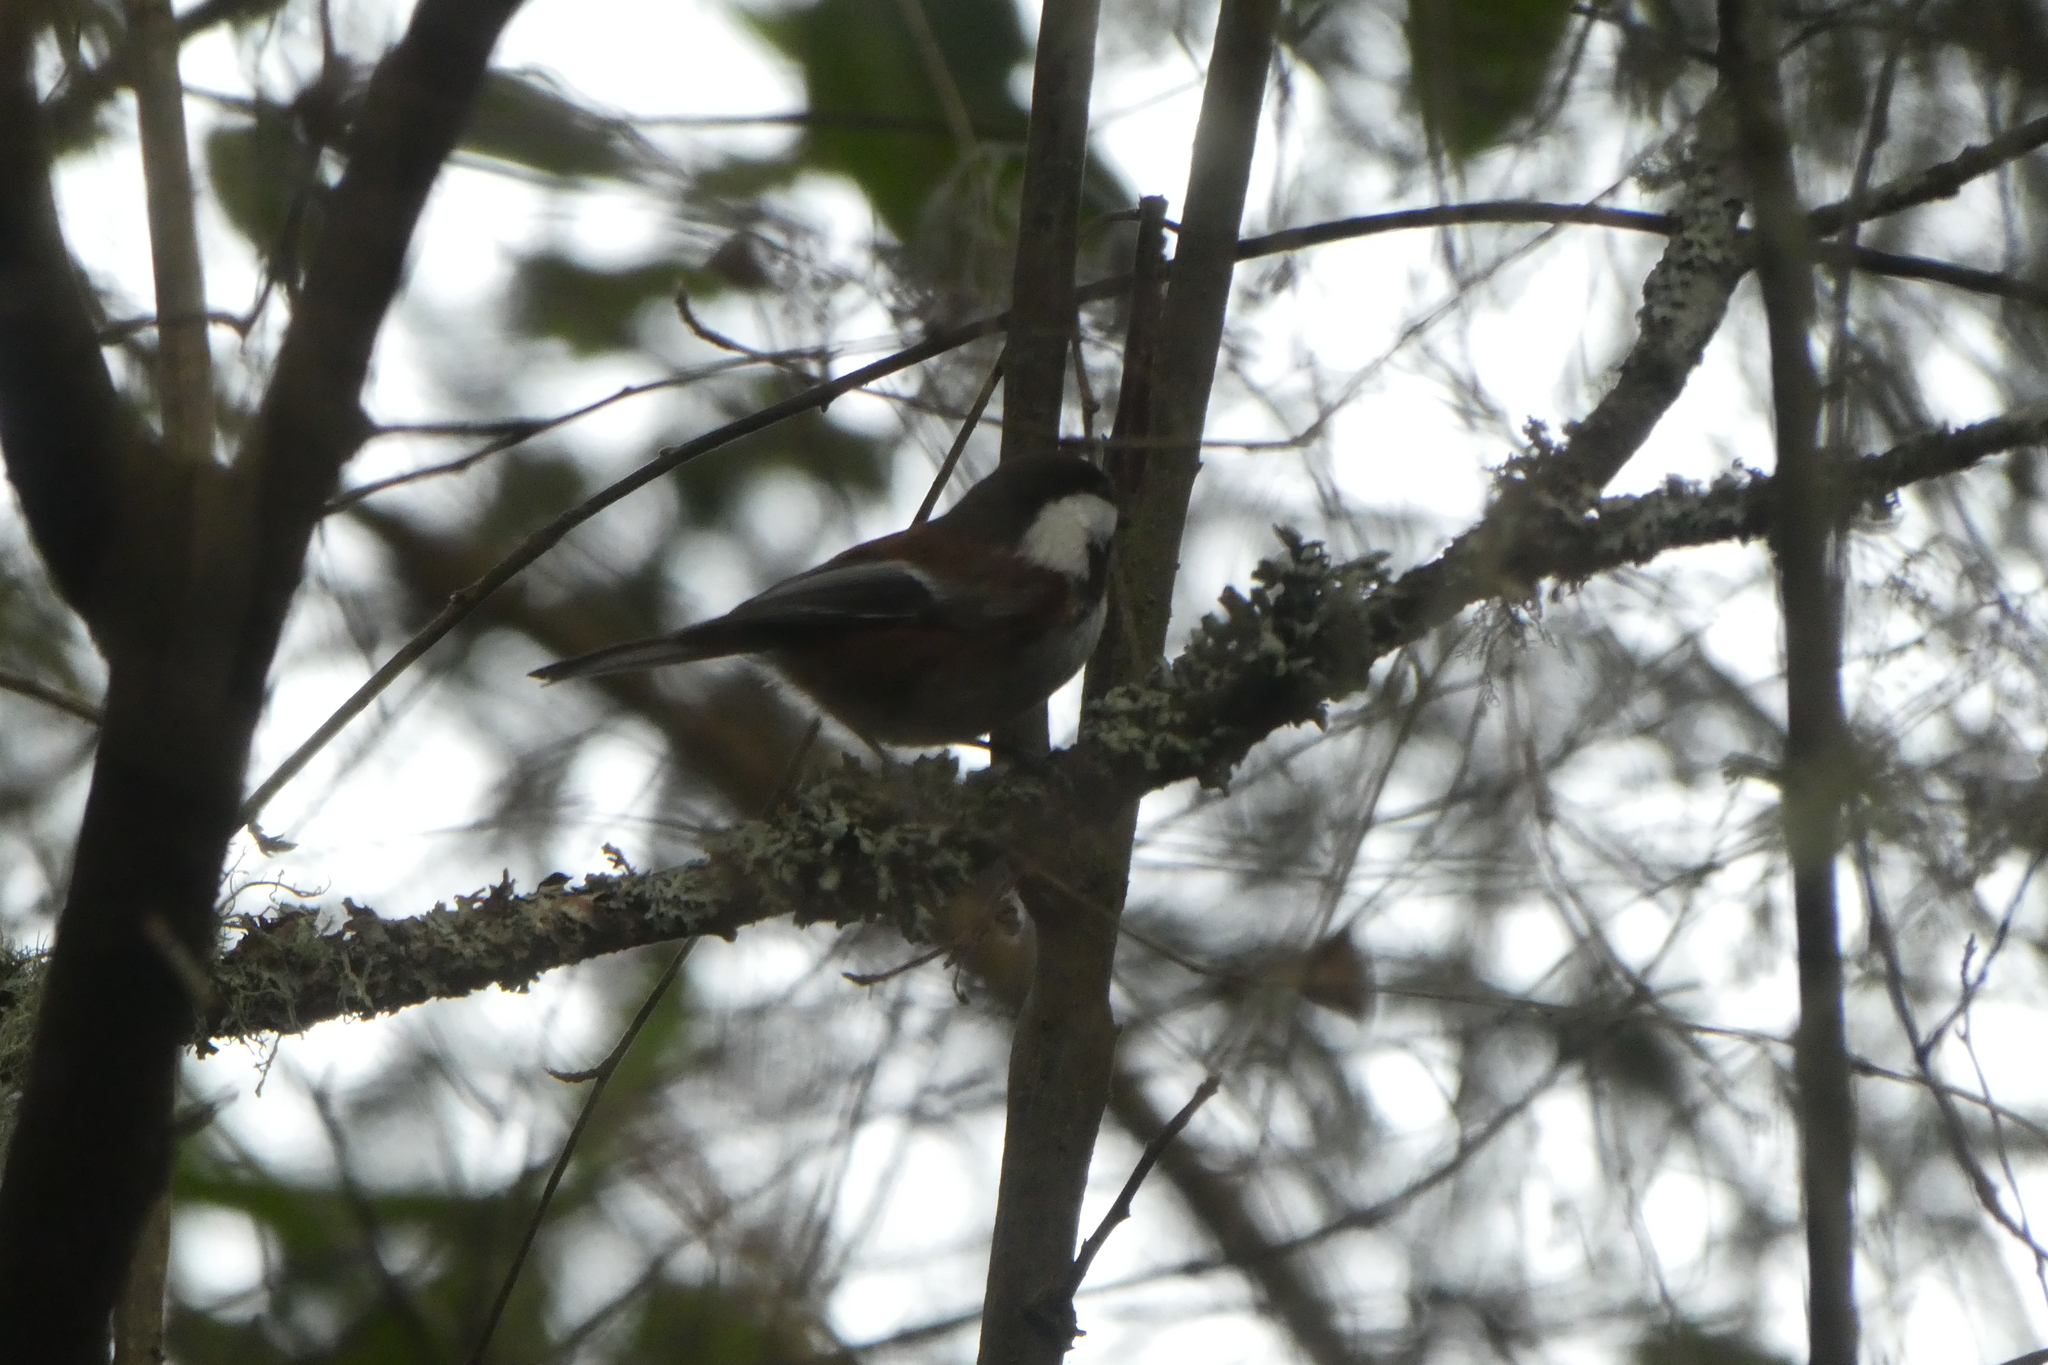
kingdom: Animalia
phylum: Chordata
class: Aves
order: Passeriformes
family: Paridae
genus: Poecile
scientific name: Poecile rufescens
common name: Chestnut-backed chickadee
